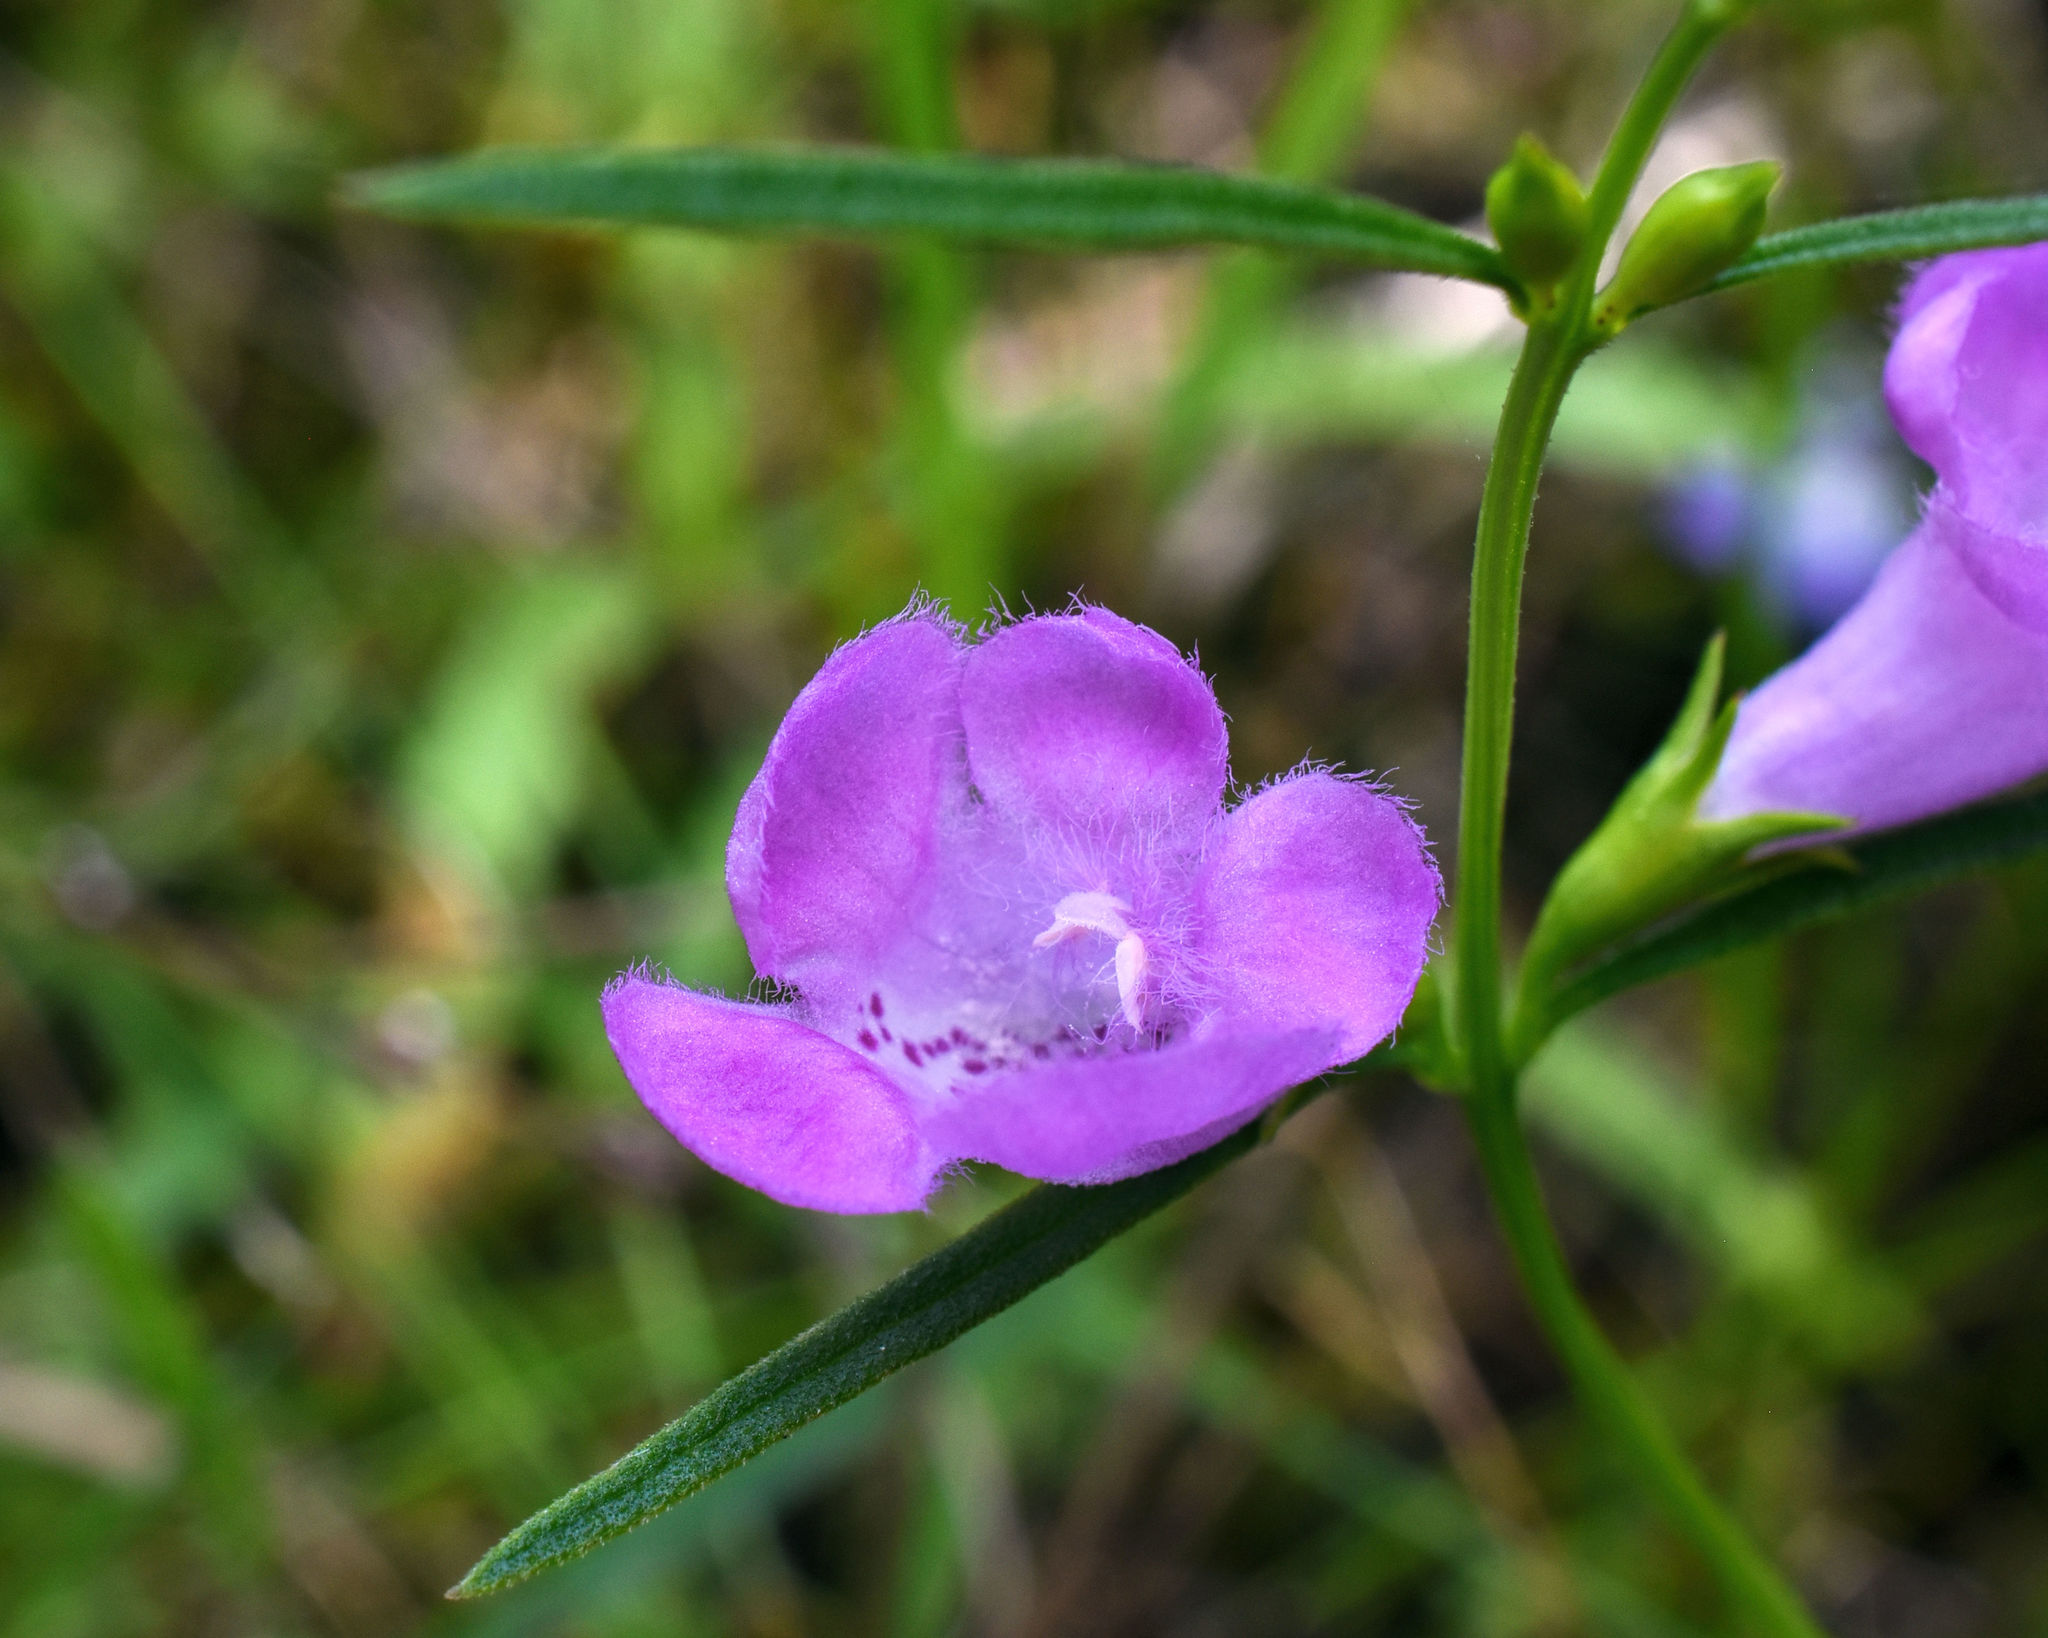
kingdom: Plantae
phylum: Tracheophyta
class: Magnoliopsida
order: Lamiales
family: Orobanchaceae
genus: Agalinis
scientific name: Agalinis purpurea
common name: Purple false foxglove
